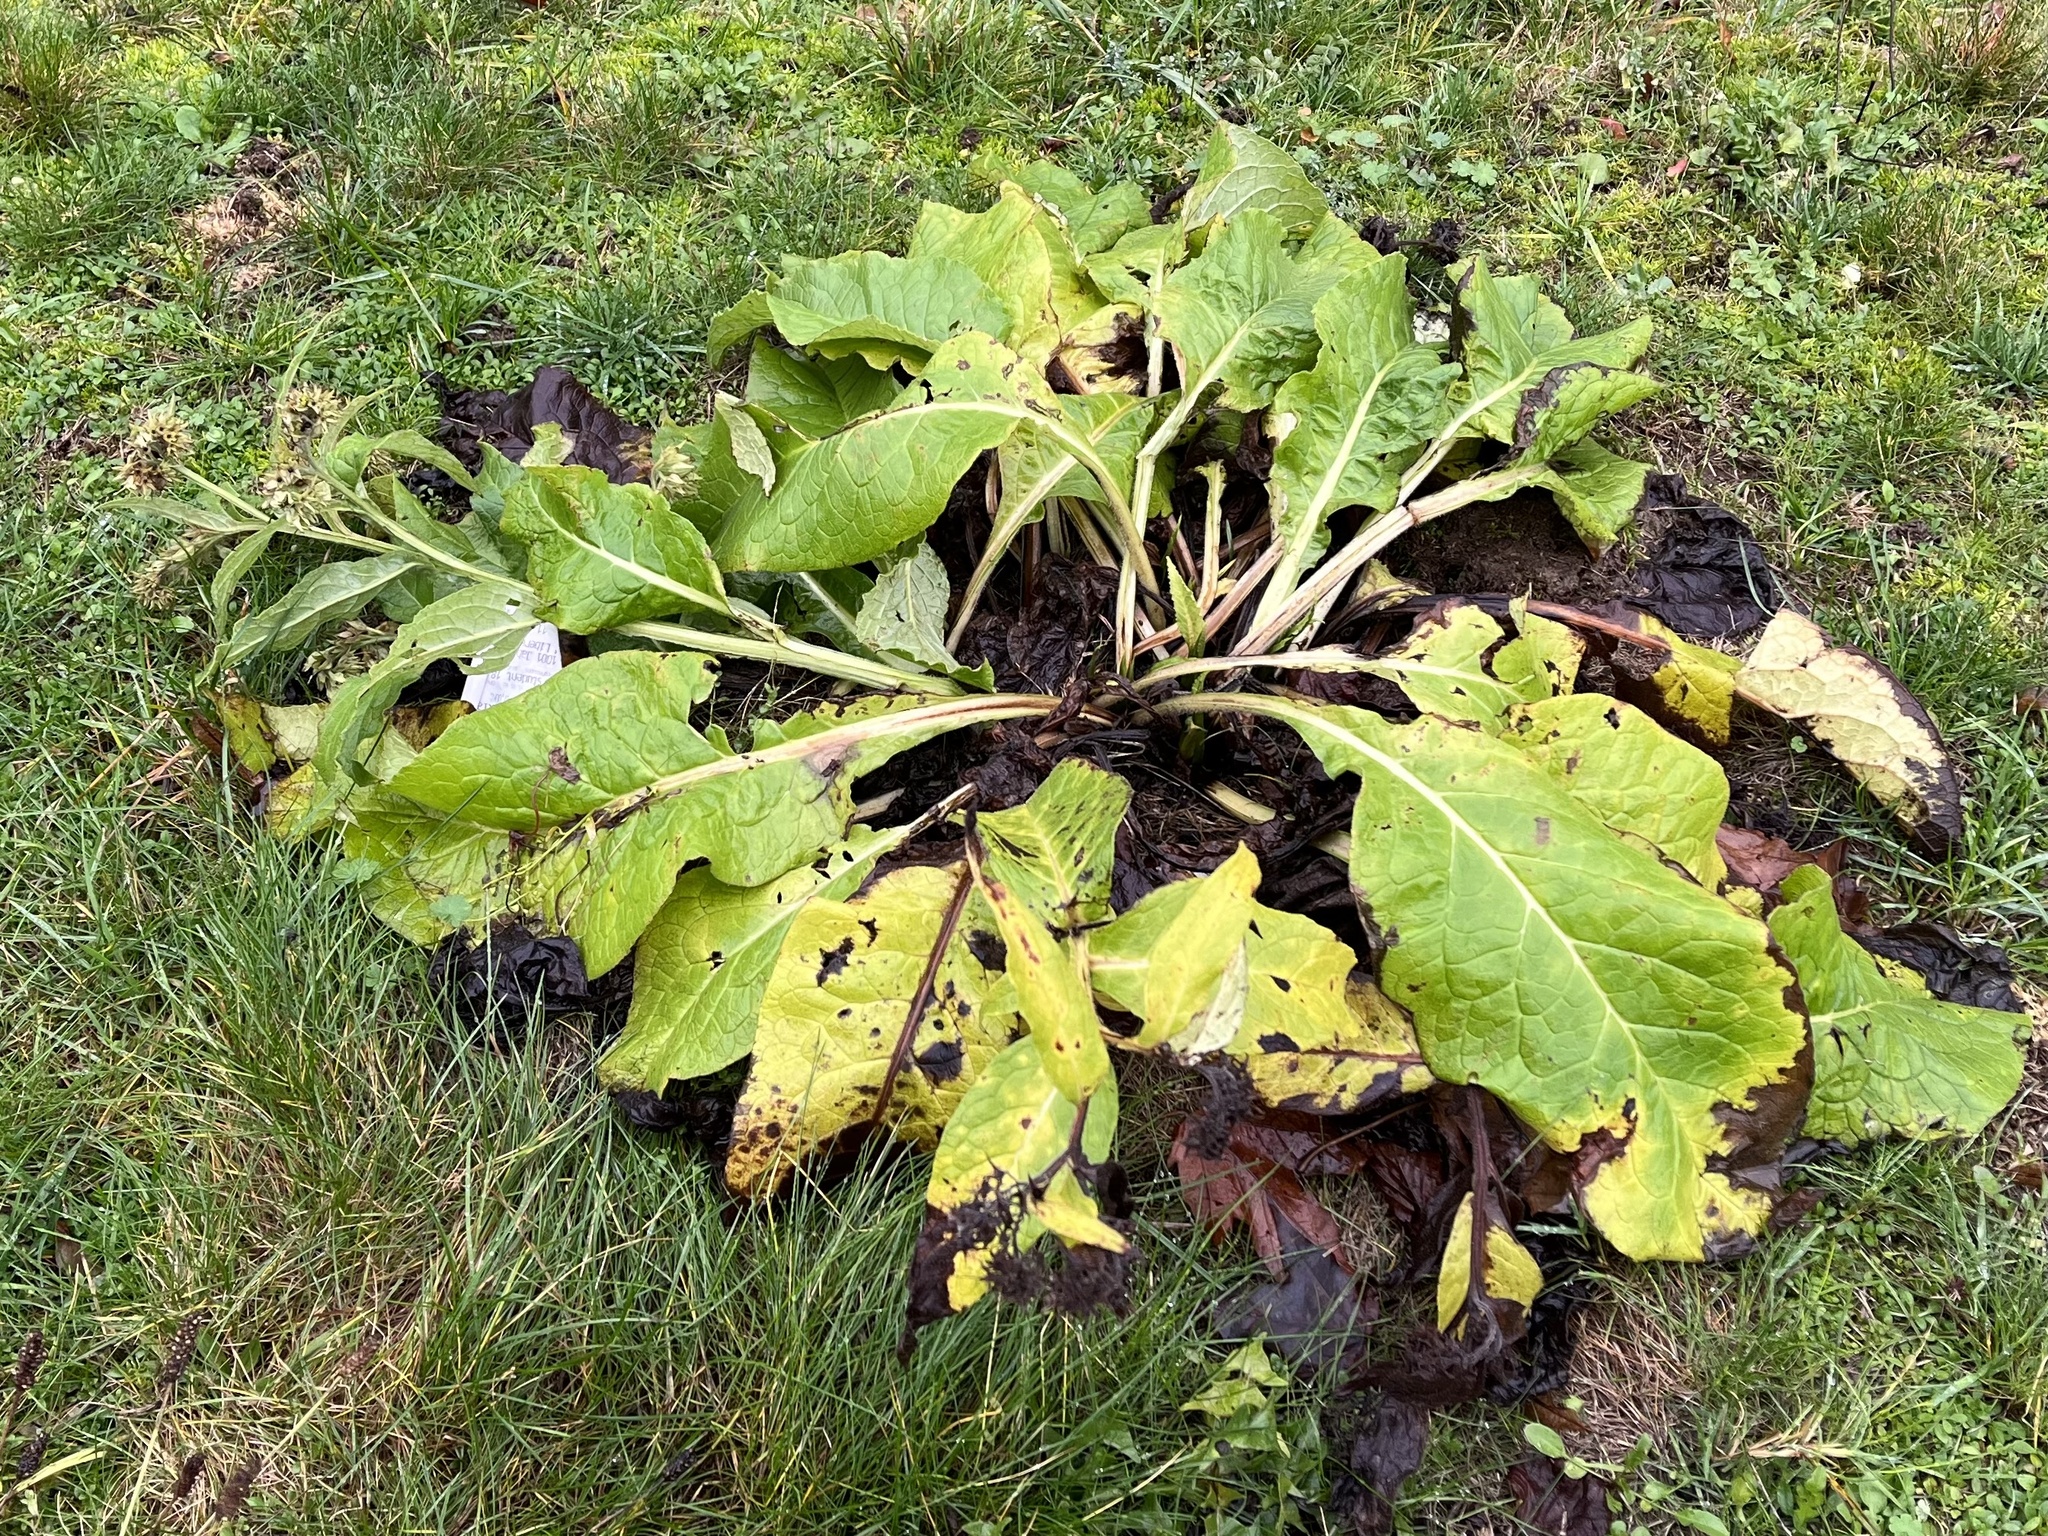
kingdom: Plantae
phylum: Tracheophyta
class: Magnoliopsida
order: Boraginales
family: Boraginaceae
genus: Symphytum
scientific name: Symphytum officinale
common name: Common comfrey
